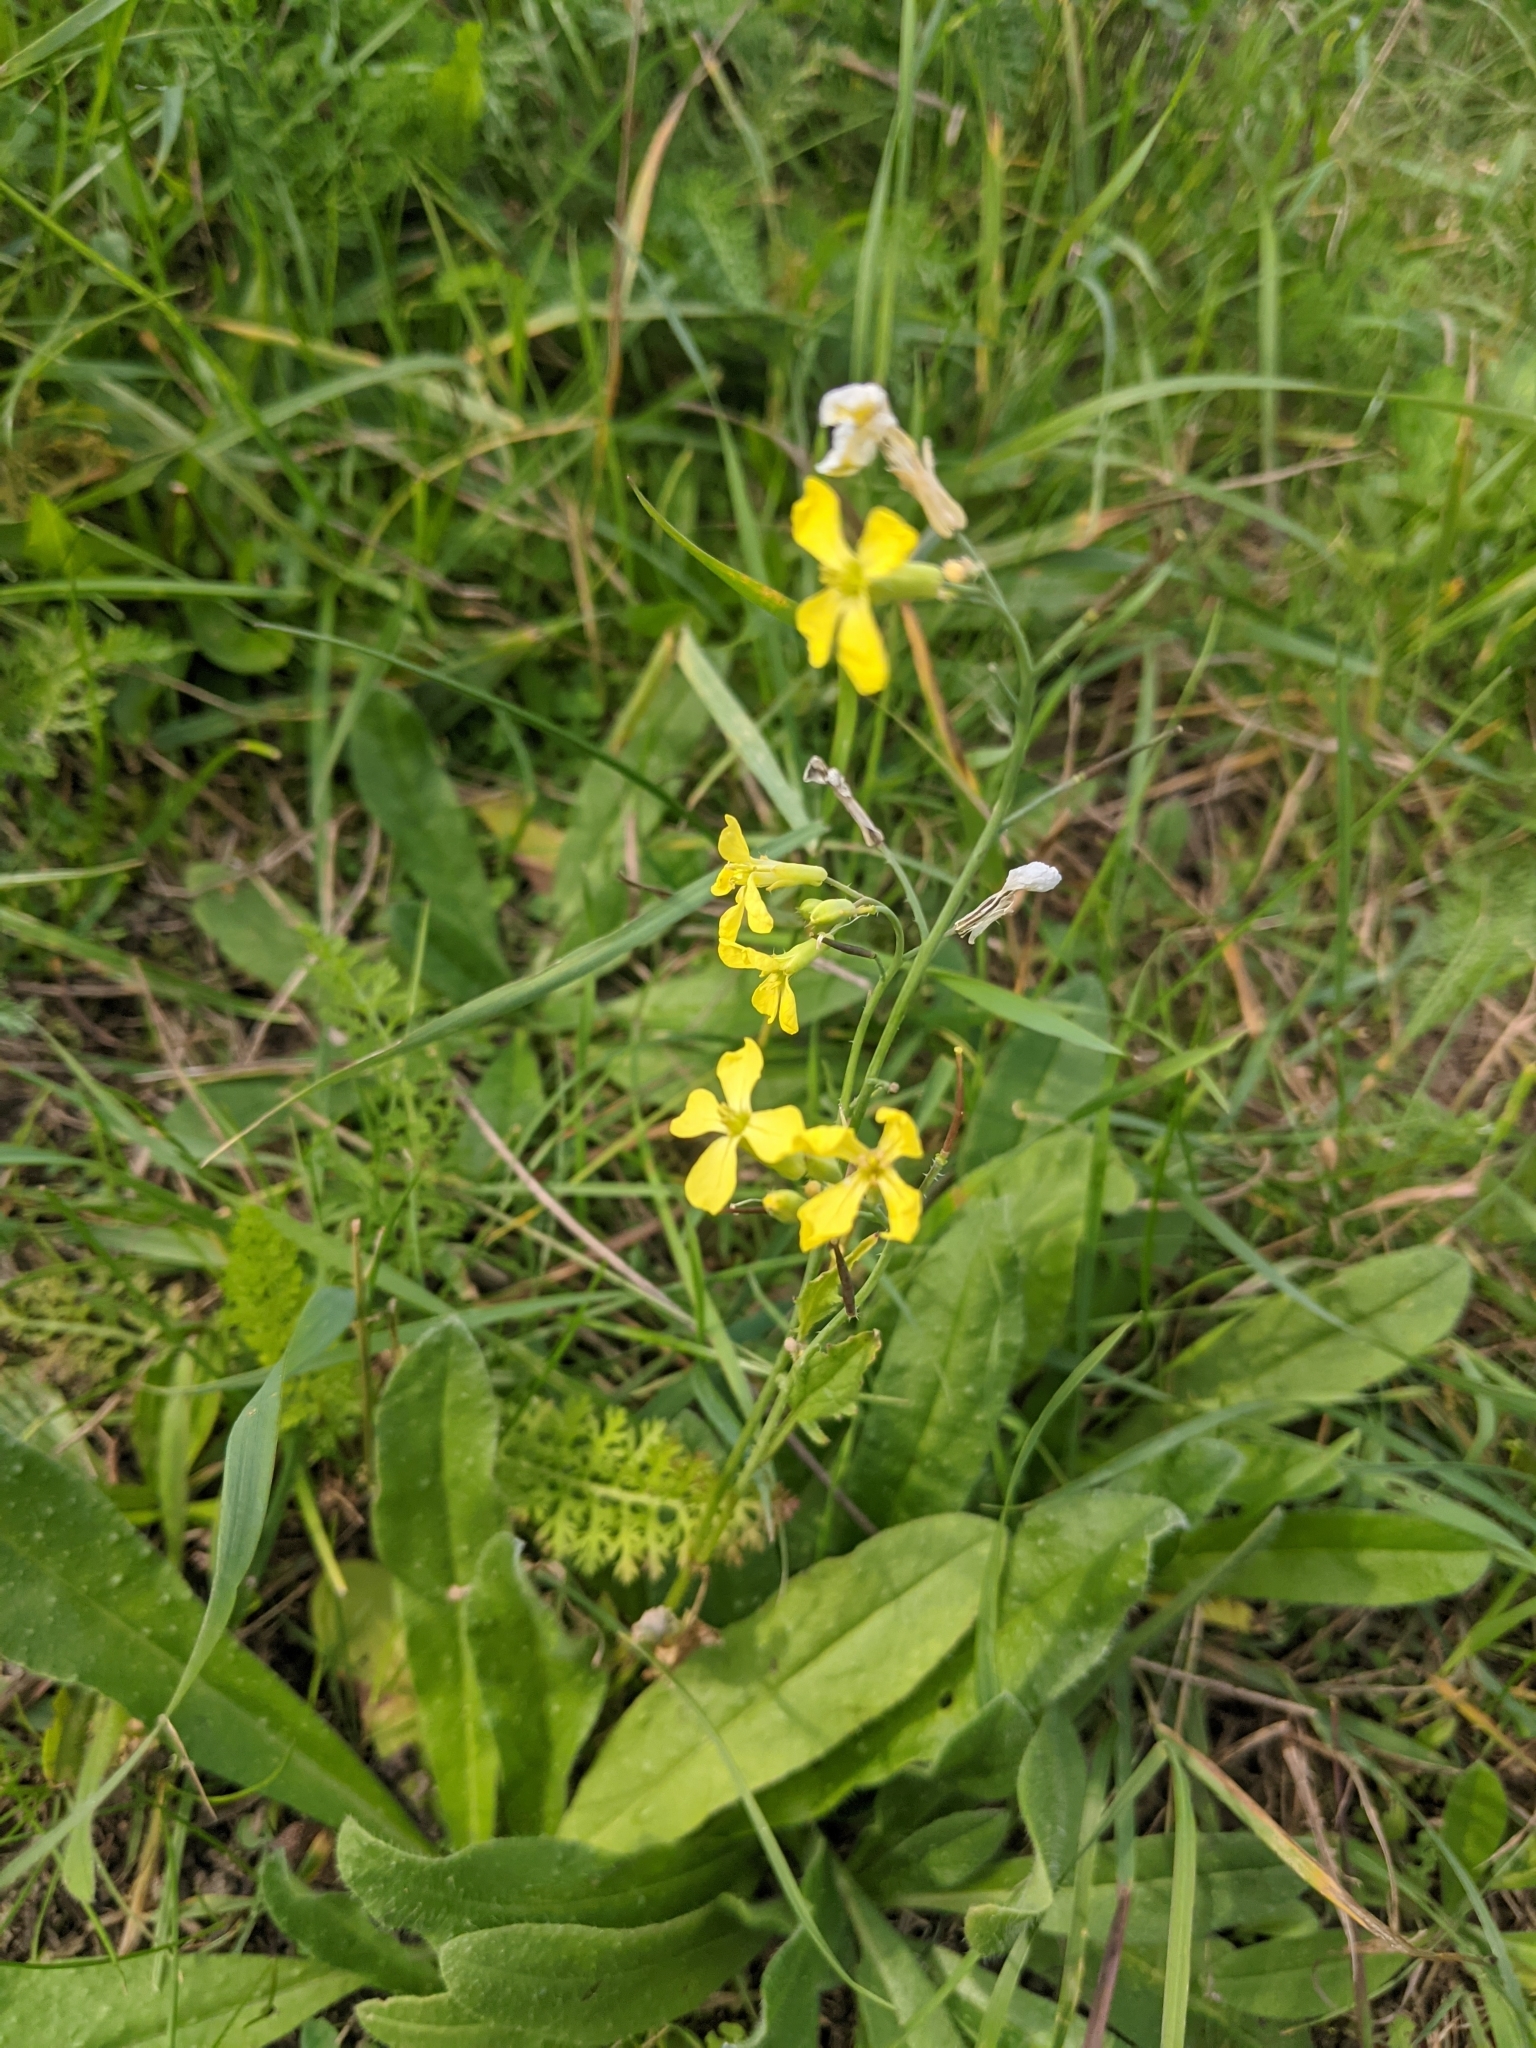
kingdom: Plantae
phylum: Tracheophyta
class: Magnoliopsida
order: Brassicales
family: Brassicaceae
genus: Raphanus
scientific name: Raphanus raphanistrum
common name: Wild radish
